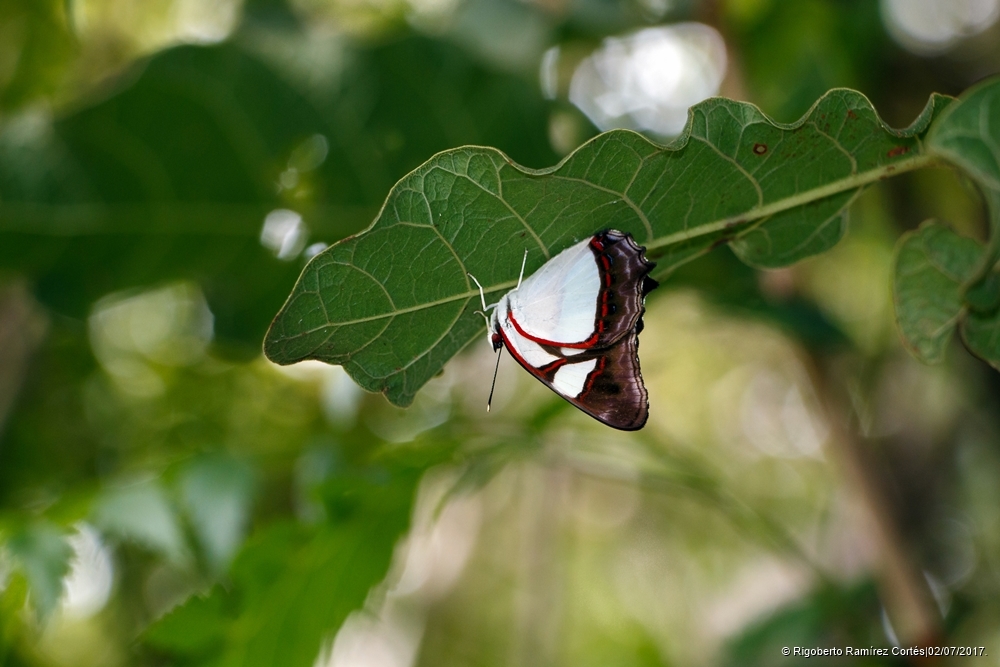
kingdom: Animalia
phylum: Arthropoda
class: Insecta
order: Lepidoptera
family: Nymphalidae
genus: Pyrrhogyra
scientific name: Pyrrhogyra neaerea
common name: Leading red-ring
